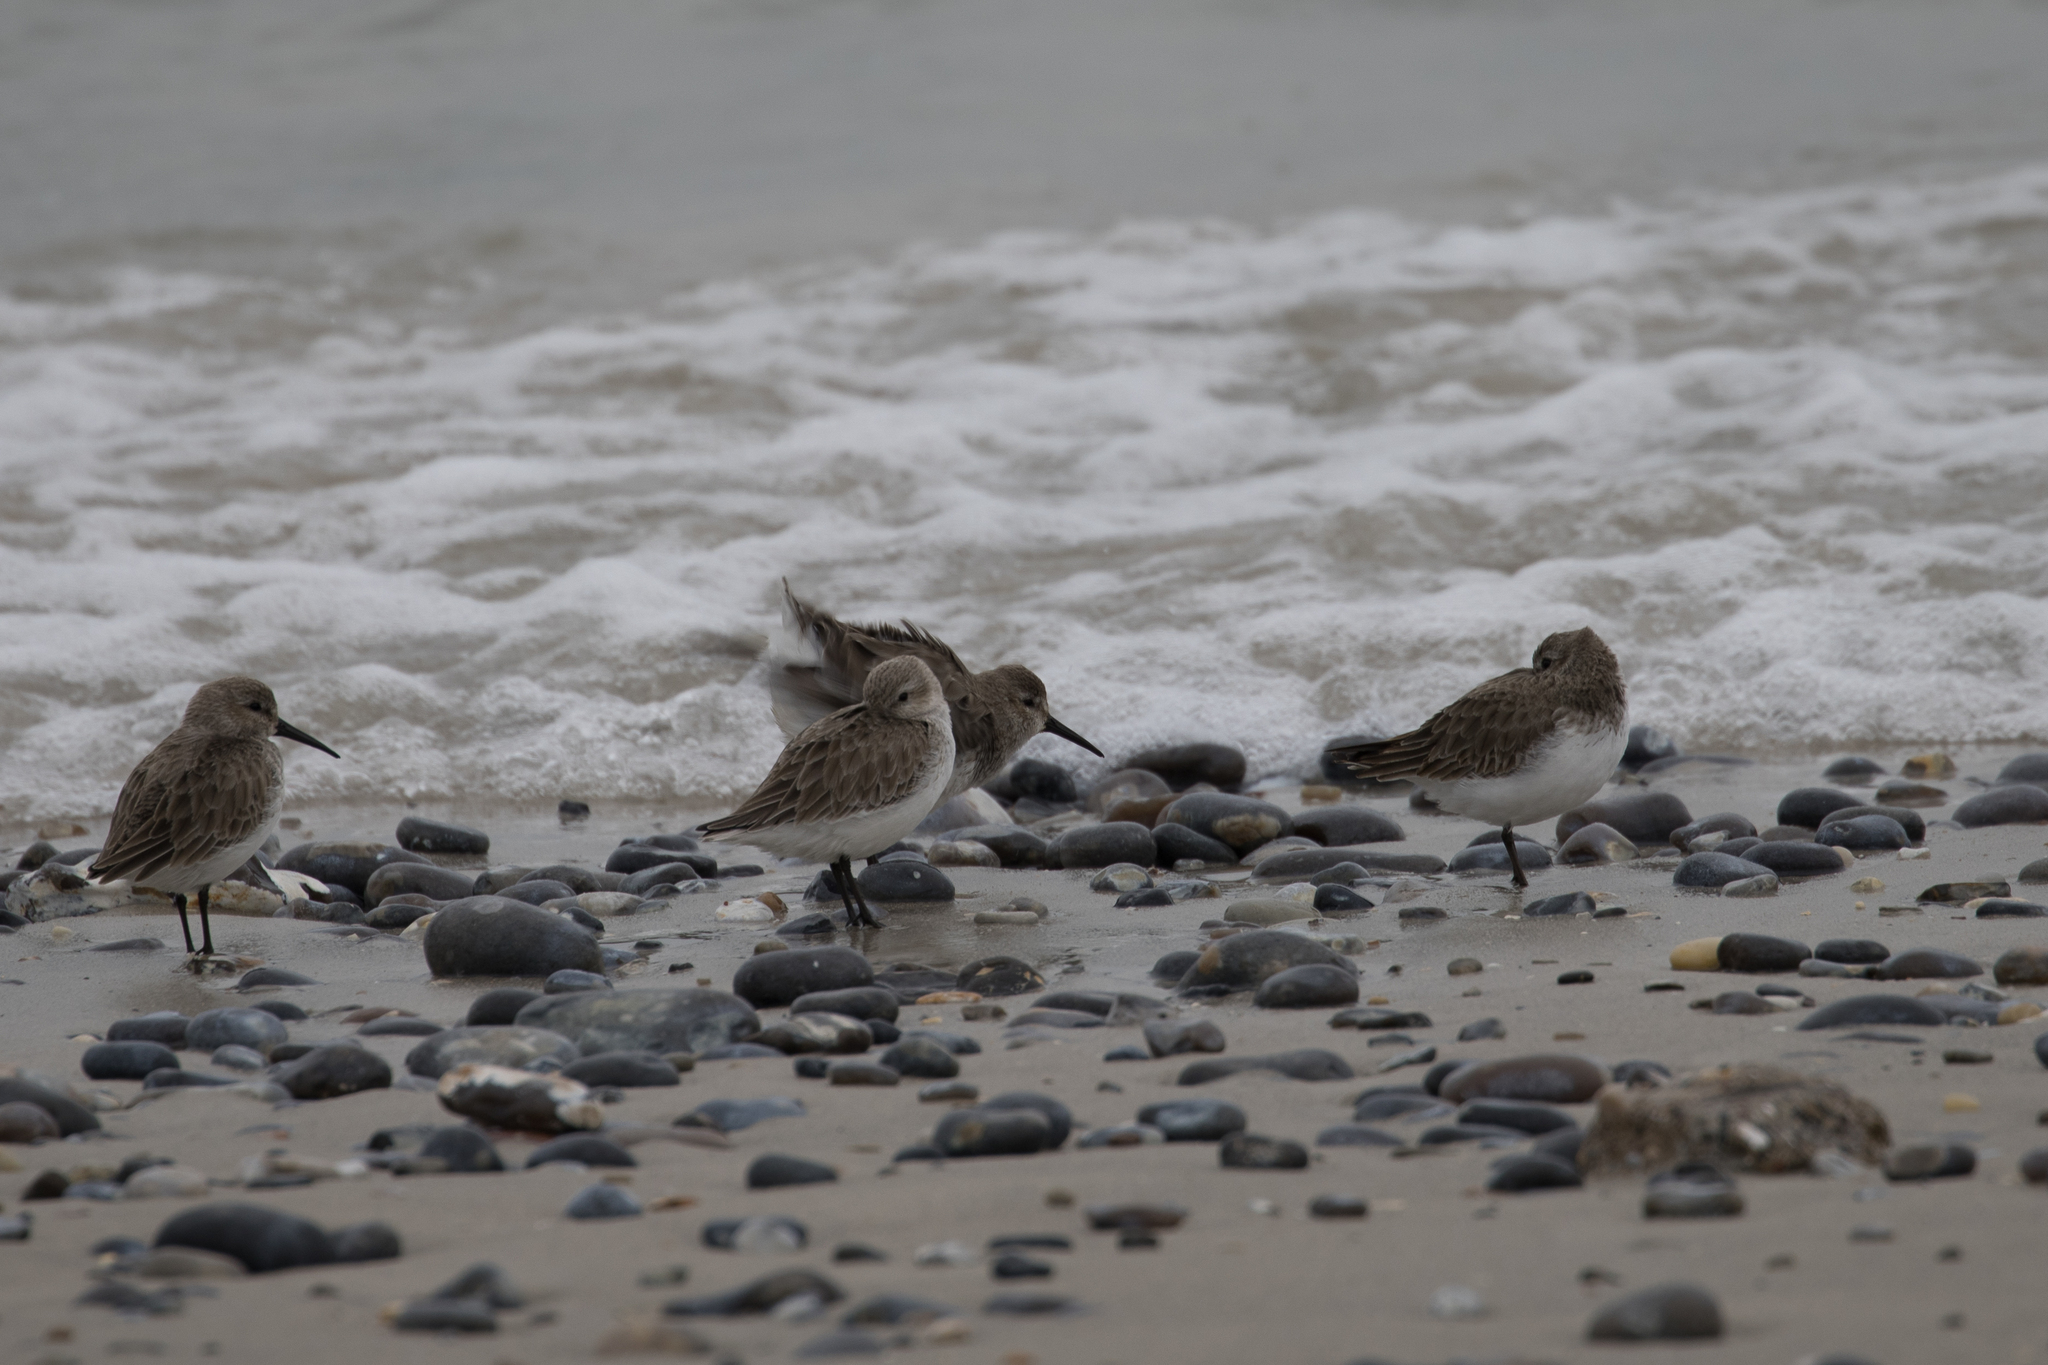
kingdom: Animalia
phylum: Chordata
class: Aves
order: Charadriiformes
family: Scolopacidae
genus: Calidris
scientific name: Calidris alpina
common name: Dunlin
